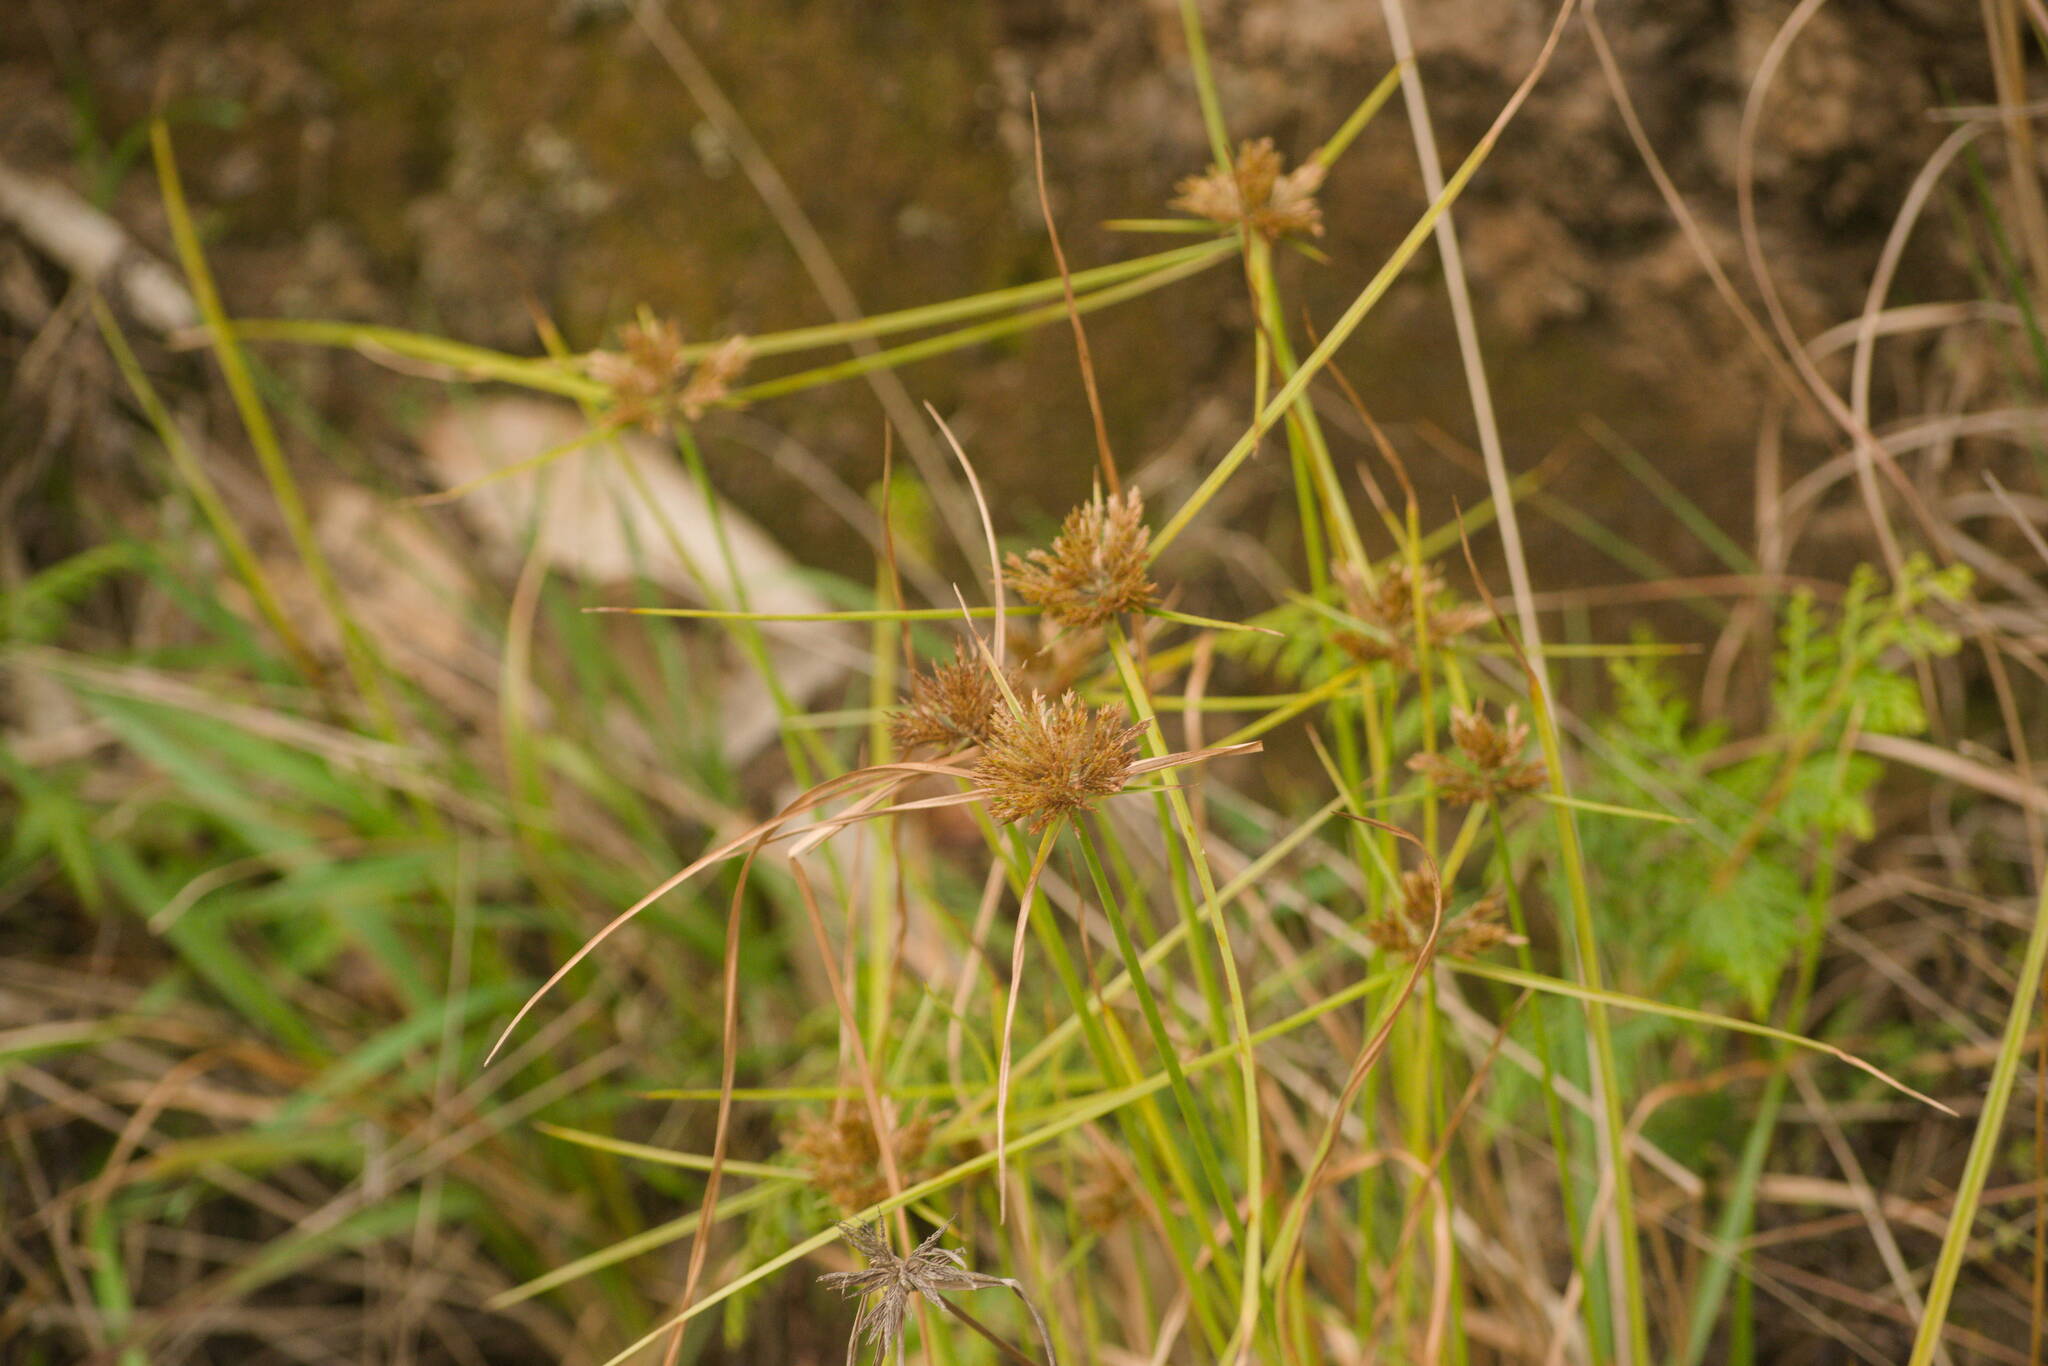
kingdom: Plantae
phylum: Tracheophyta
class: Liliopsida
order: Poales
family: Cyperaceae
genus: Cyperus
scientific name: Cyperus polystachyos
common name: Bunchy flat sedge
